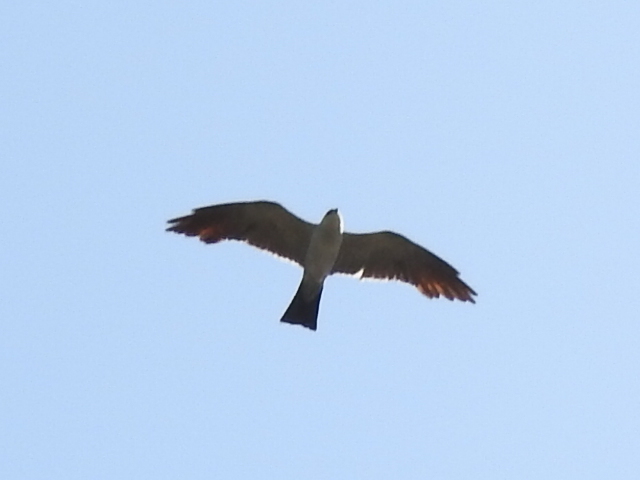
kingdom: Animalia
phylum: Chordata
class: Aves
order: Accipitriformes
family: Accipitridae
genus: Ictinia
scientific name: Ictinia mississippiensis
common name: Mississippi kite
